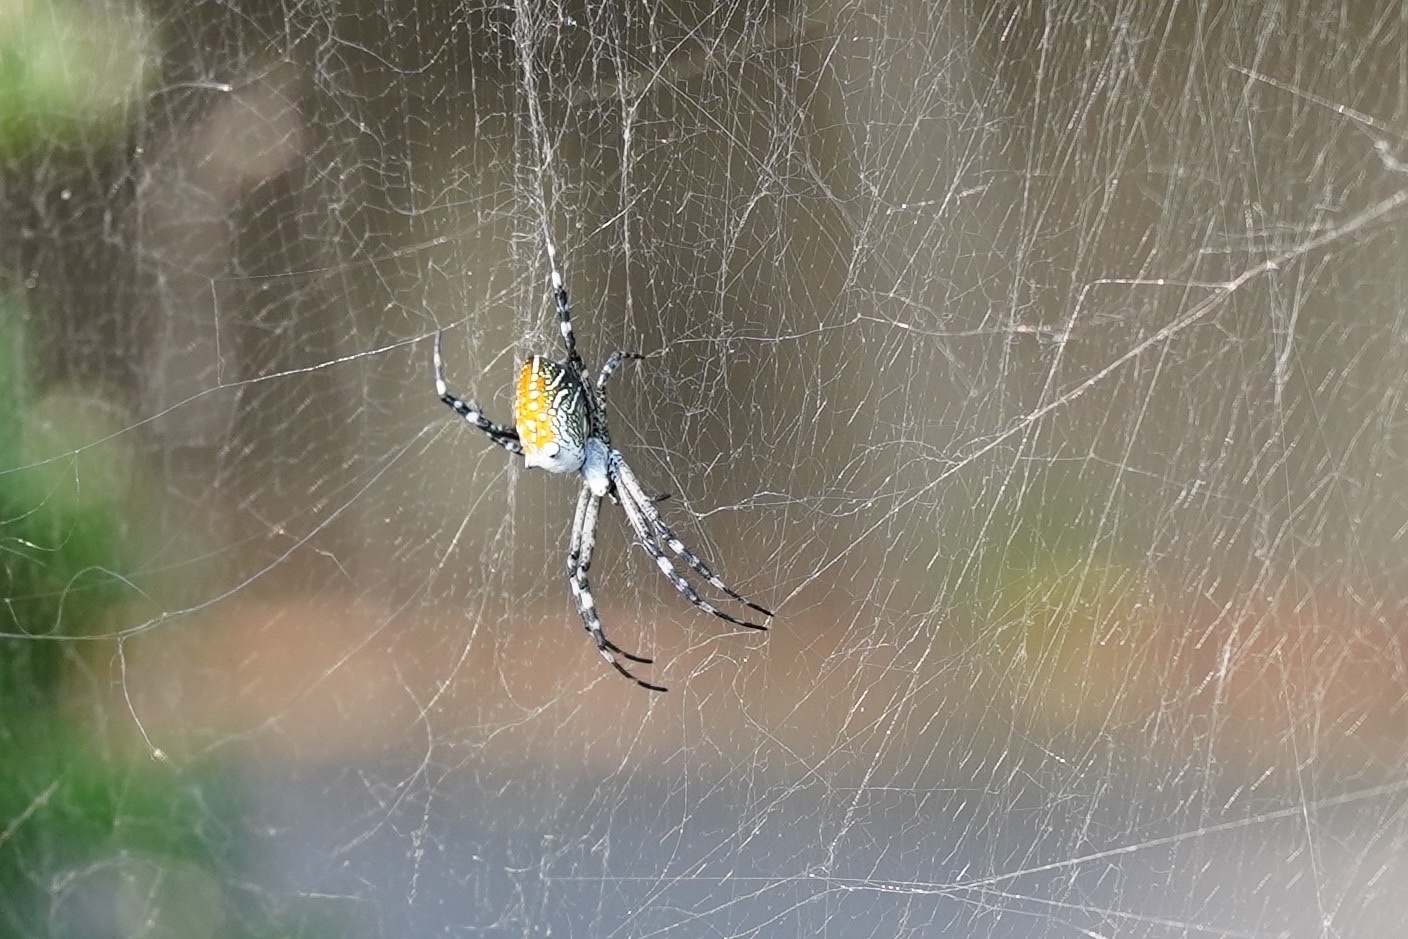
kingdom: Chromista
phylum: Ochrophyta
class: Dictyochophyceae
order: Pedinellales
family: Cyrtophoraceae
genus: Cyrtophora
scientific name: Cyrtophora moluccensis
